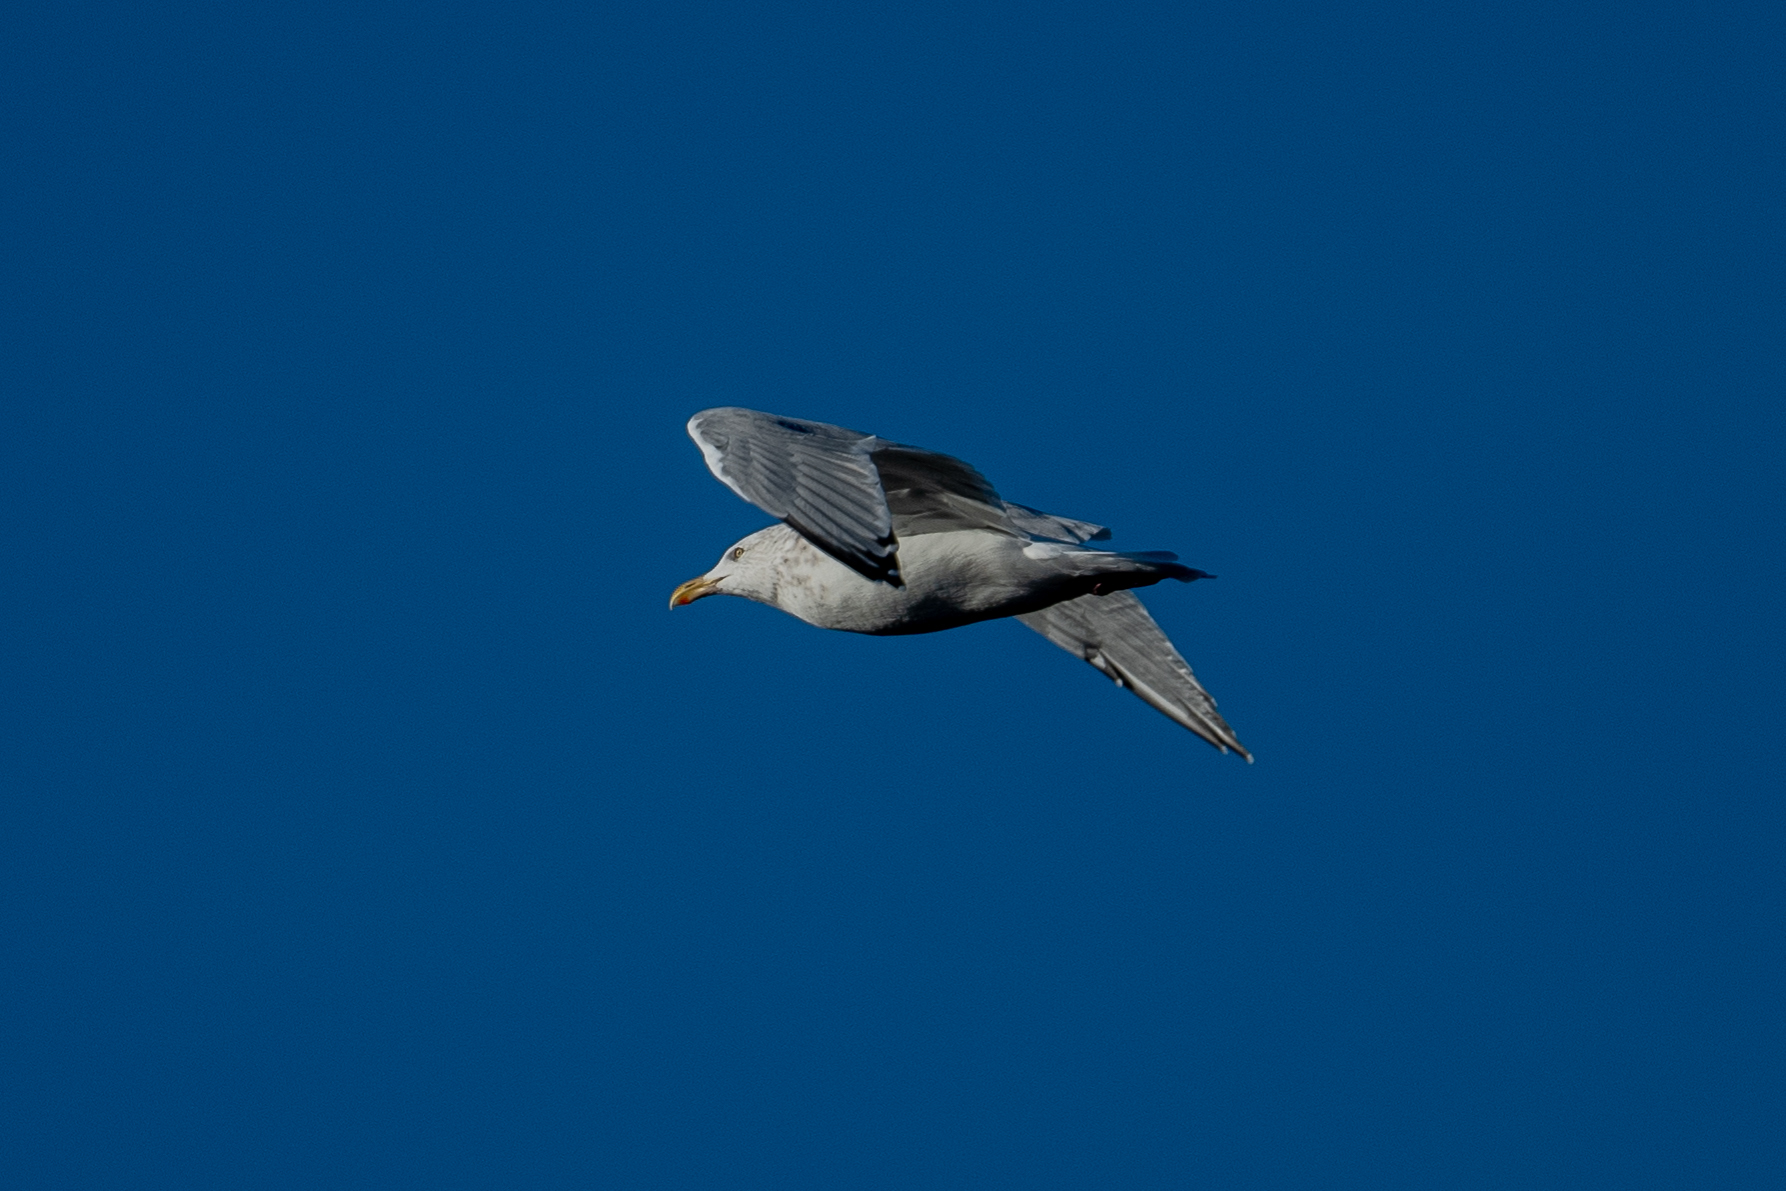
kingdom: Animalia
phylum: Chordata
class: Aves
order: Charadriiformes
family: Laridae
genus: Larus
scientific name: Larus argentatus
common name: Herring gull
